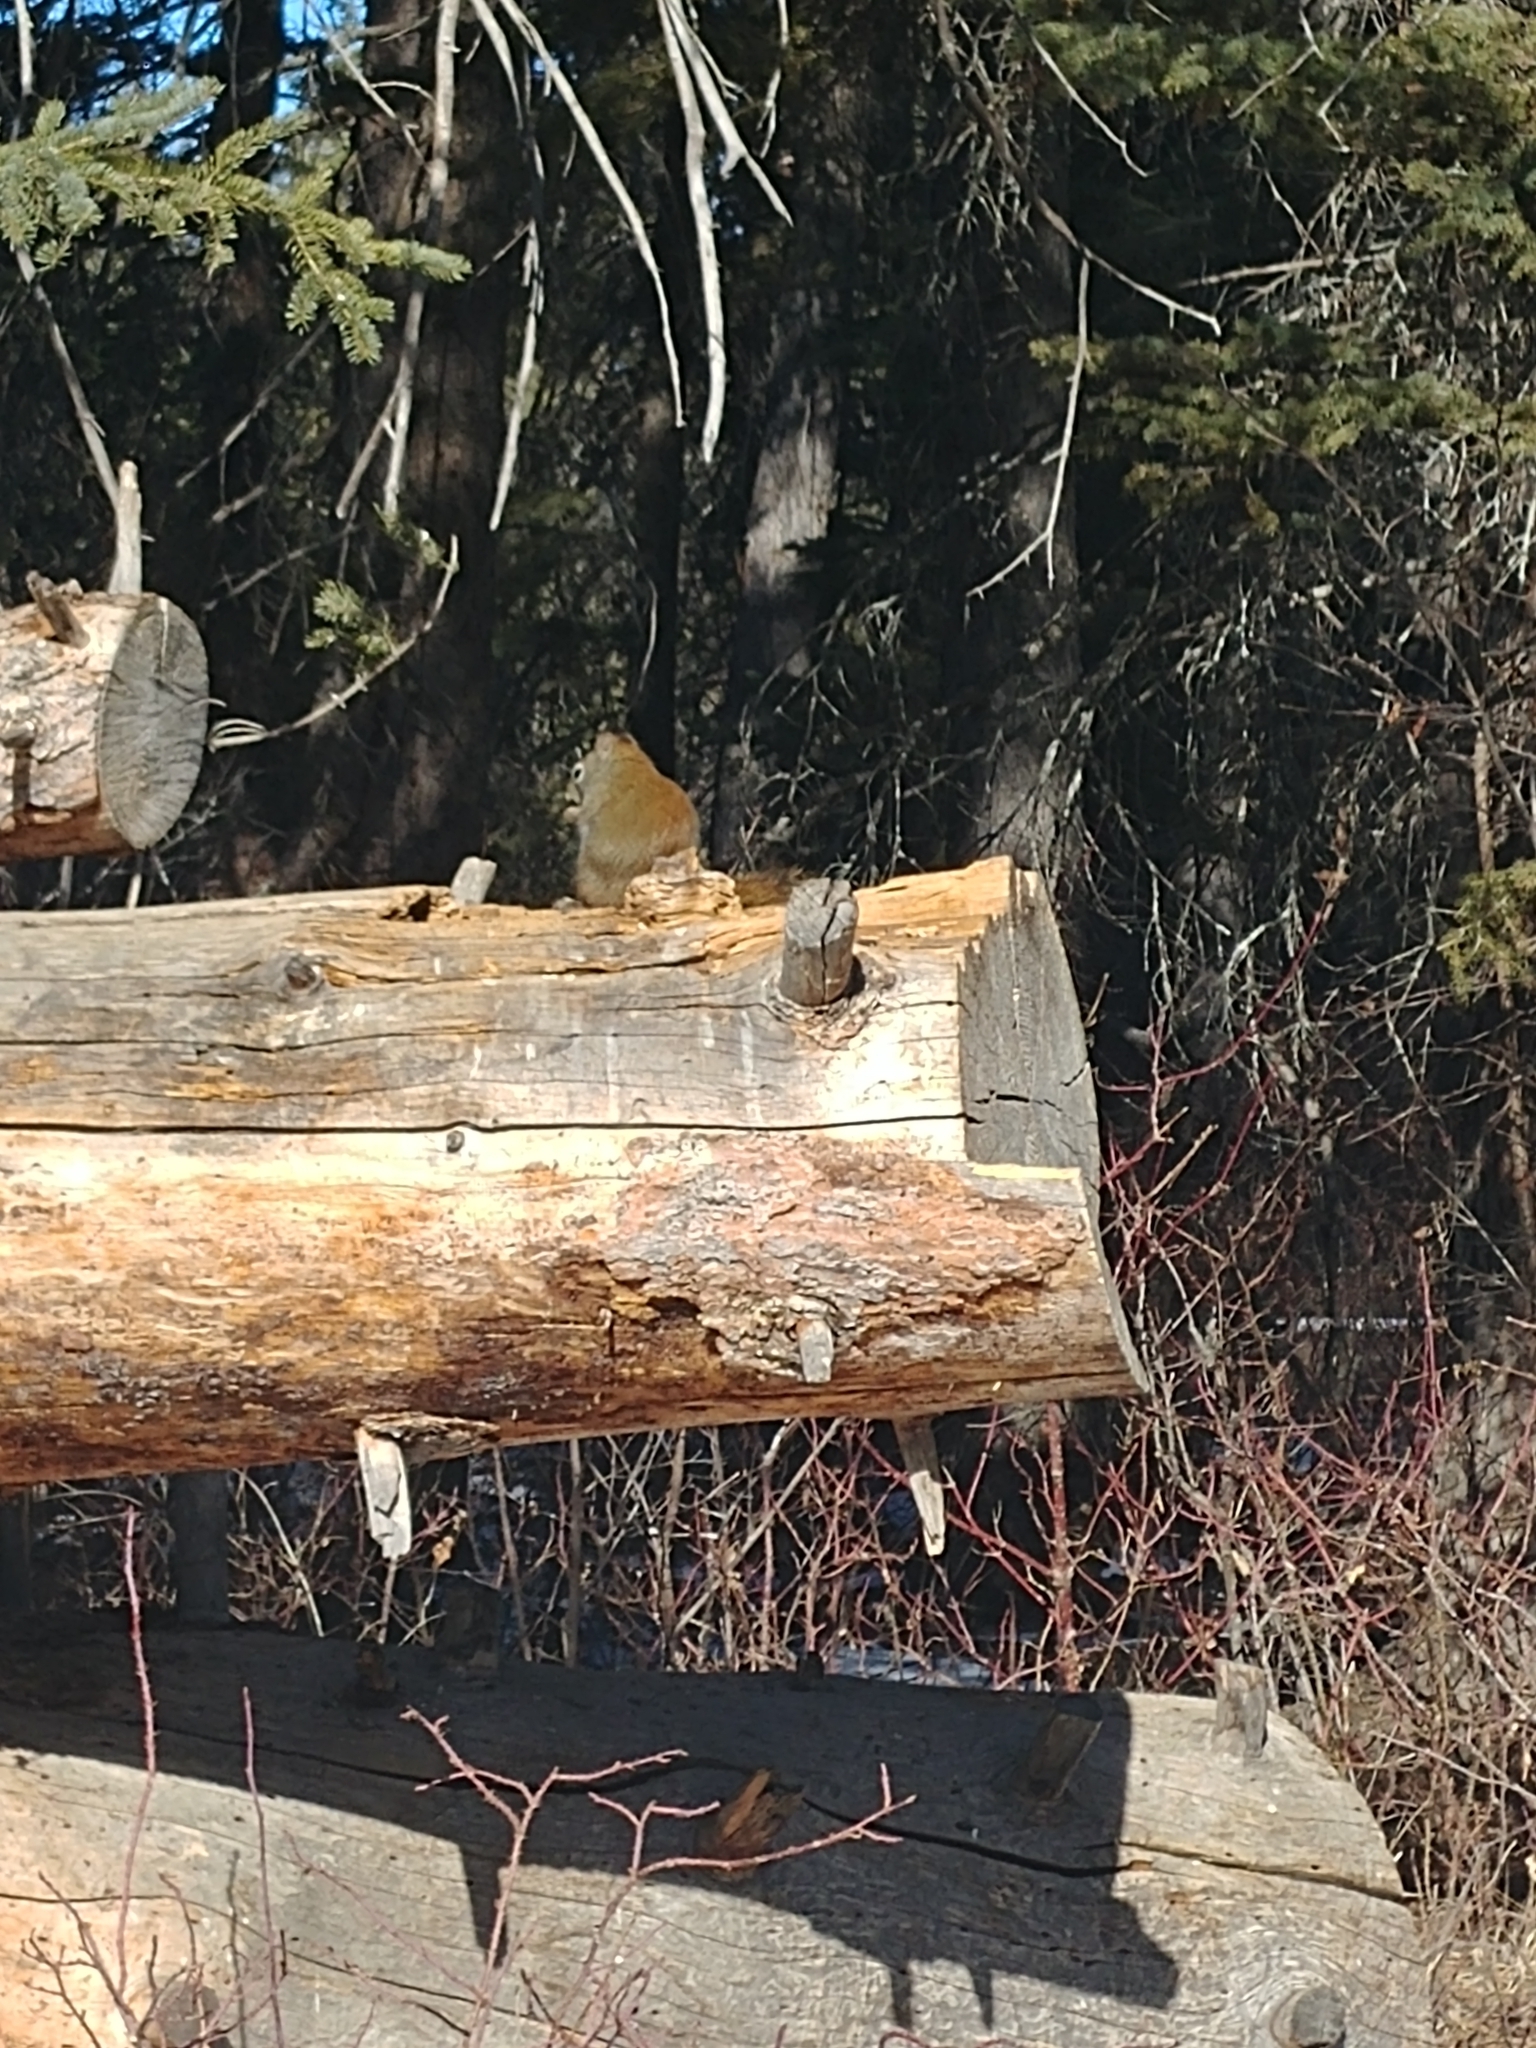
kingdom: Animalia
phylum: Chordata
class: Mammalia
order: Rodentia
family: Sciuridae
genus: Tamiasciurus
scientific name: Tamiasciurus hudsonicus
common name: Red squirrel
